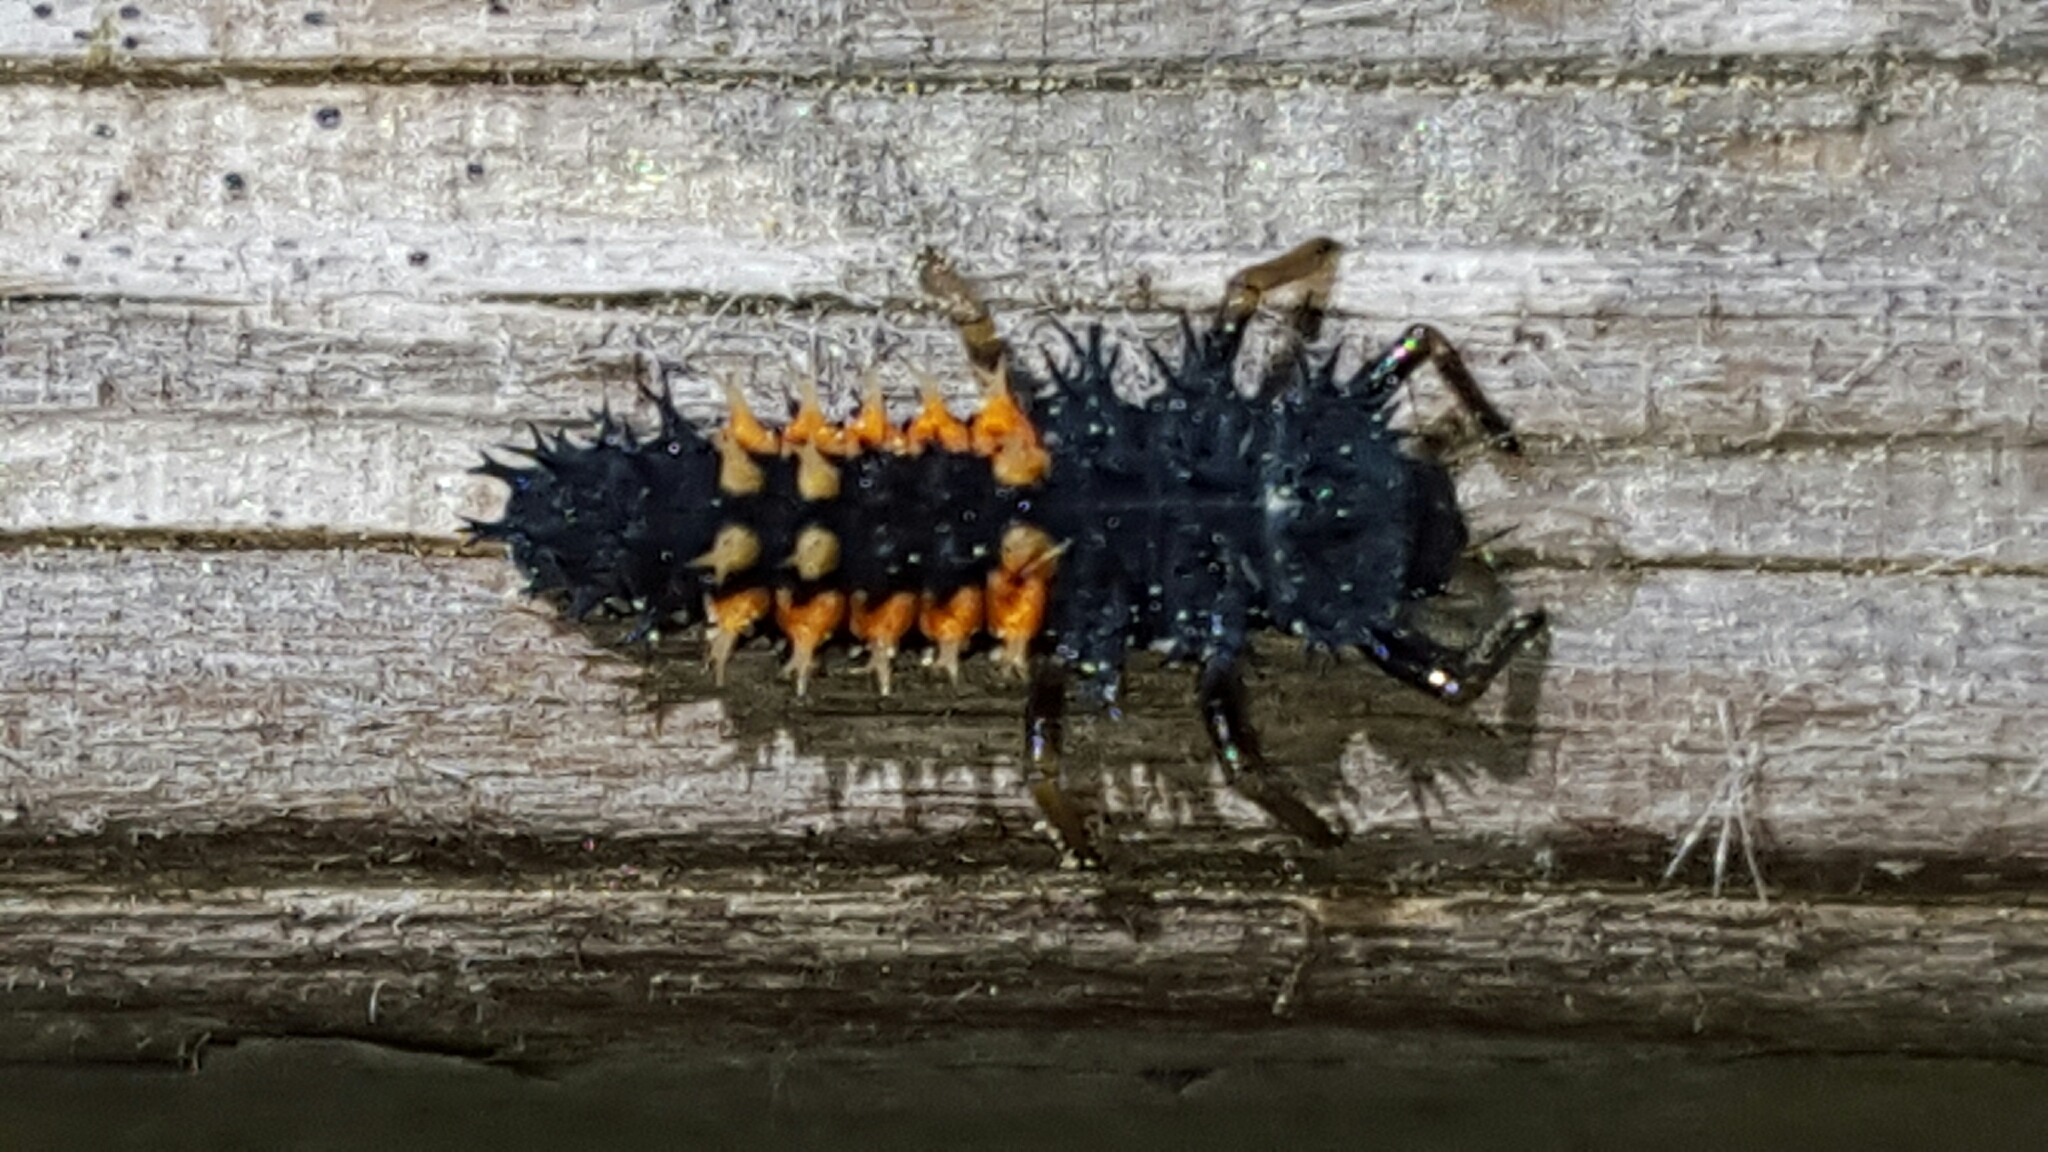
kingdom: Animalia
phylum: Arthropoda
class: Insecta
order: Coleoptera
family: Coccinellidae
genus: Harmonia
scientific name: Harmonia axyridis
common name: Harlequin ladybird
